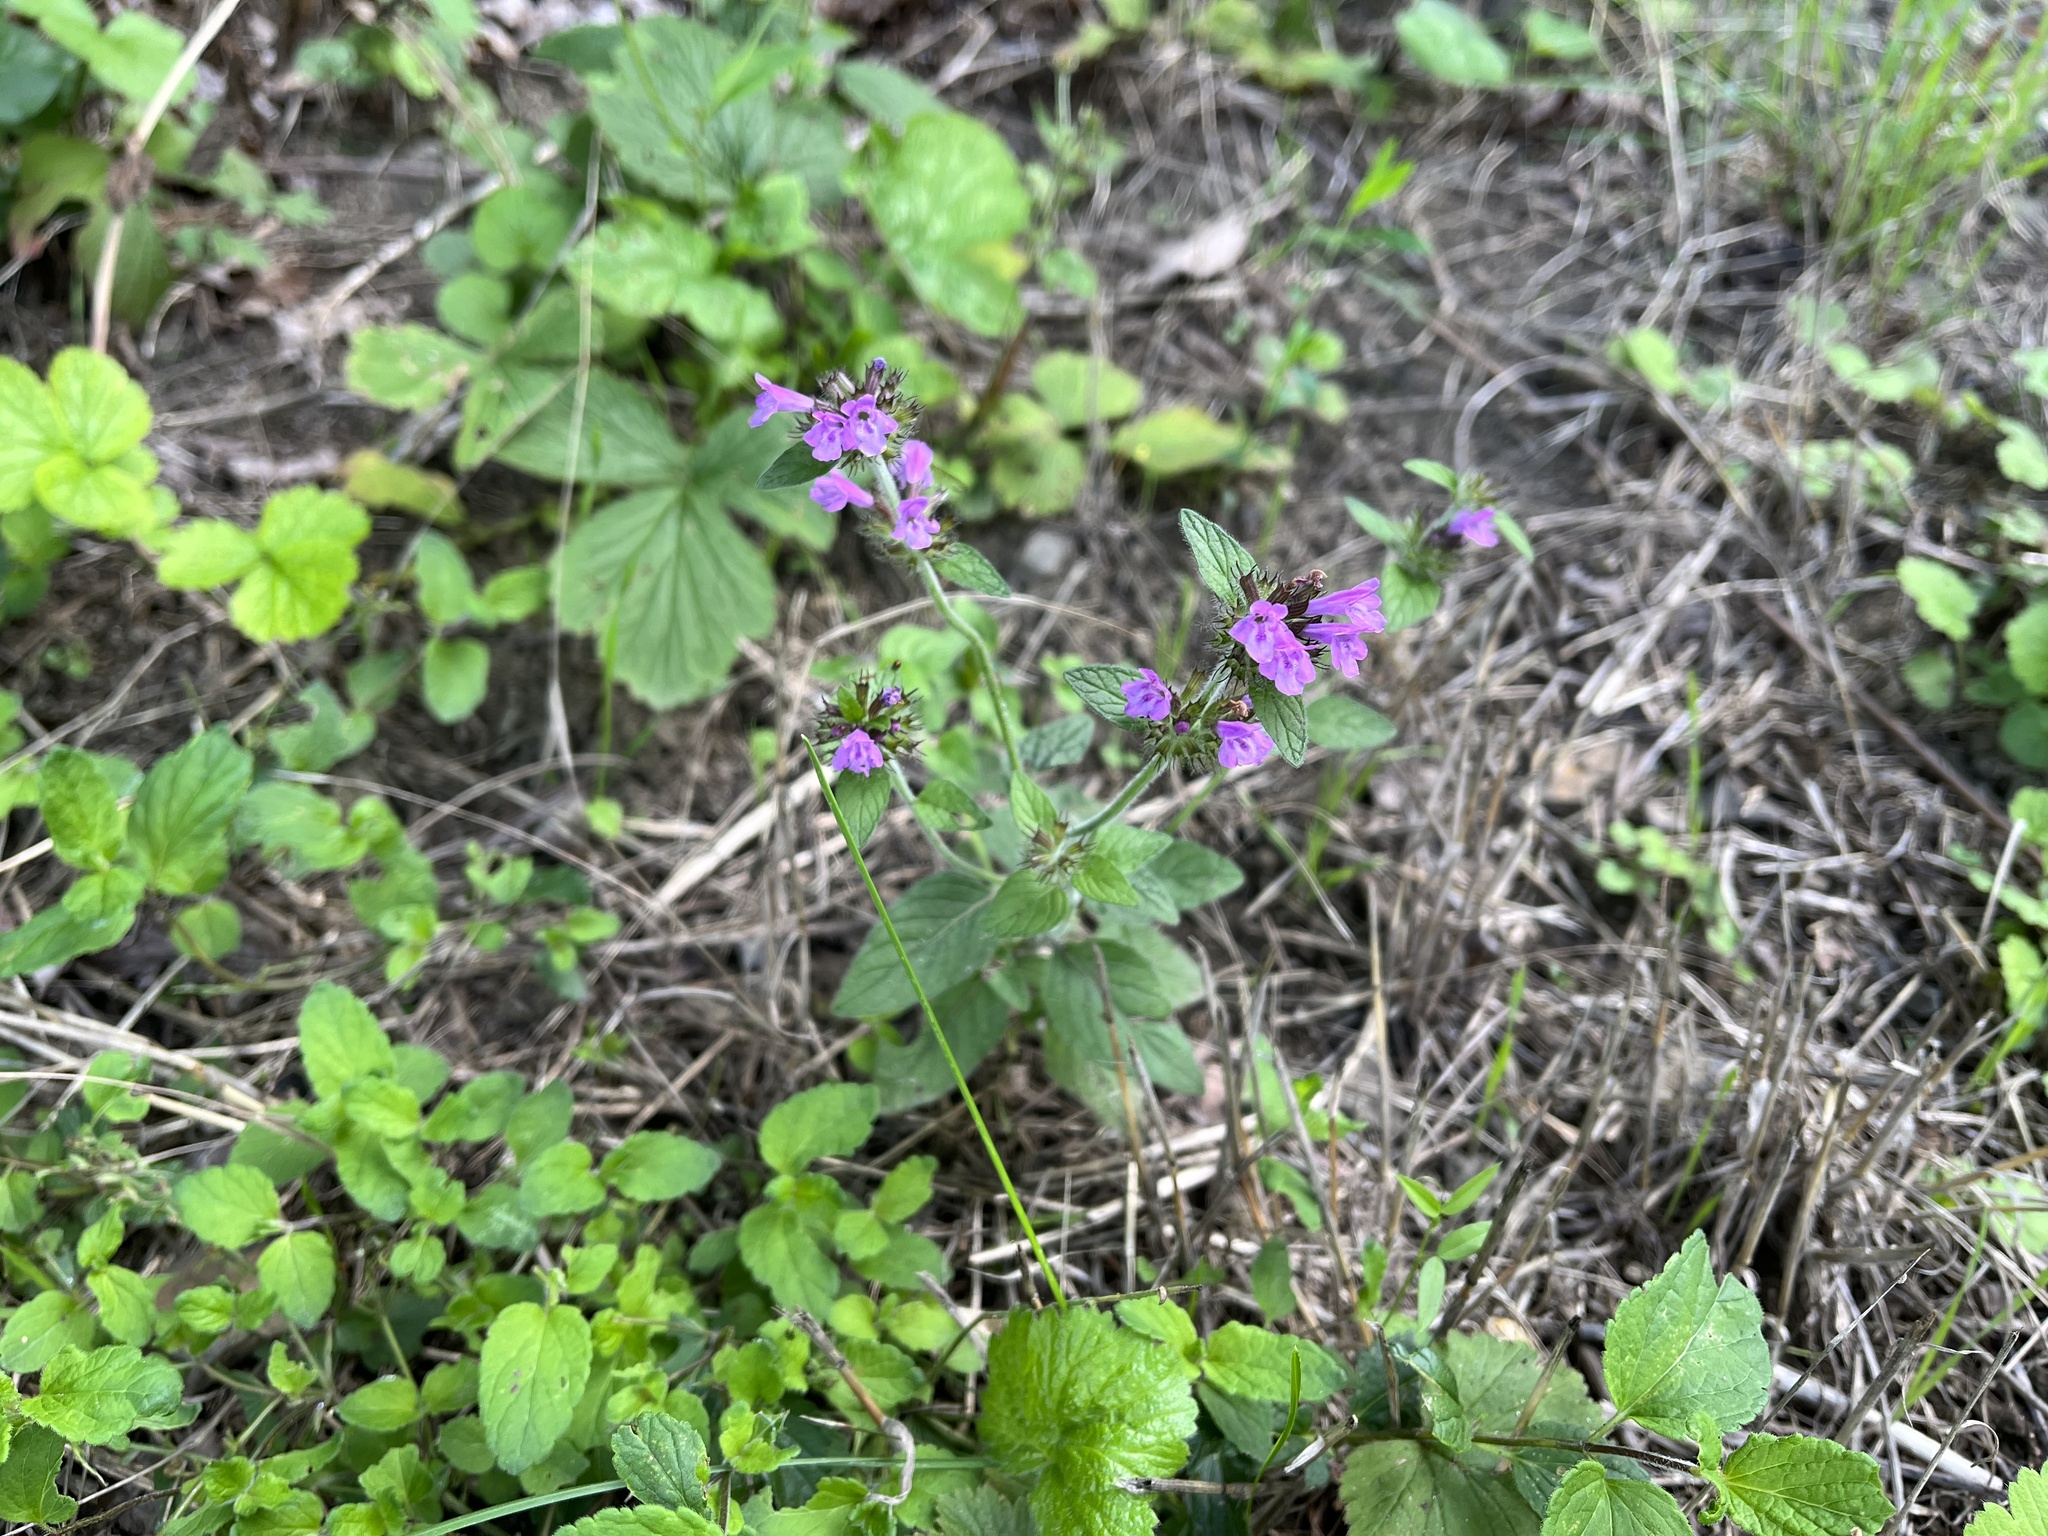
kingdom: Plantae
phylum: Tracheophyta
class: Magnoliopsida
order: Lamiales
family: Lamiaceae
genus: Clinopodium
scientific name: Clinopodium vulgare
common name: Wild basil
